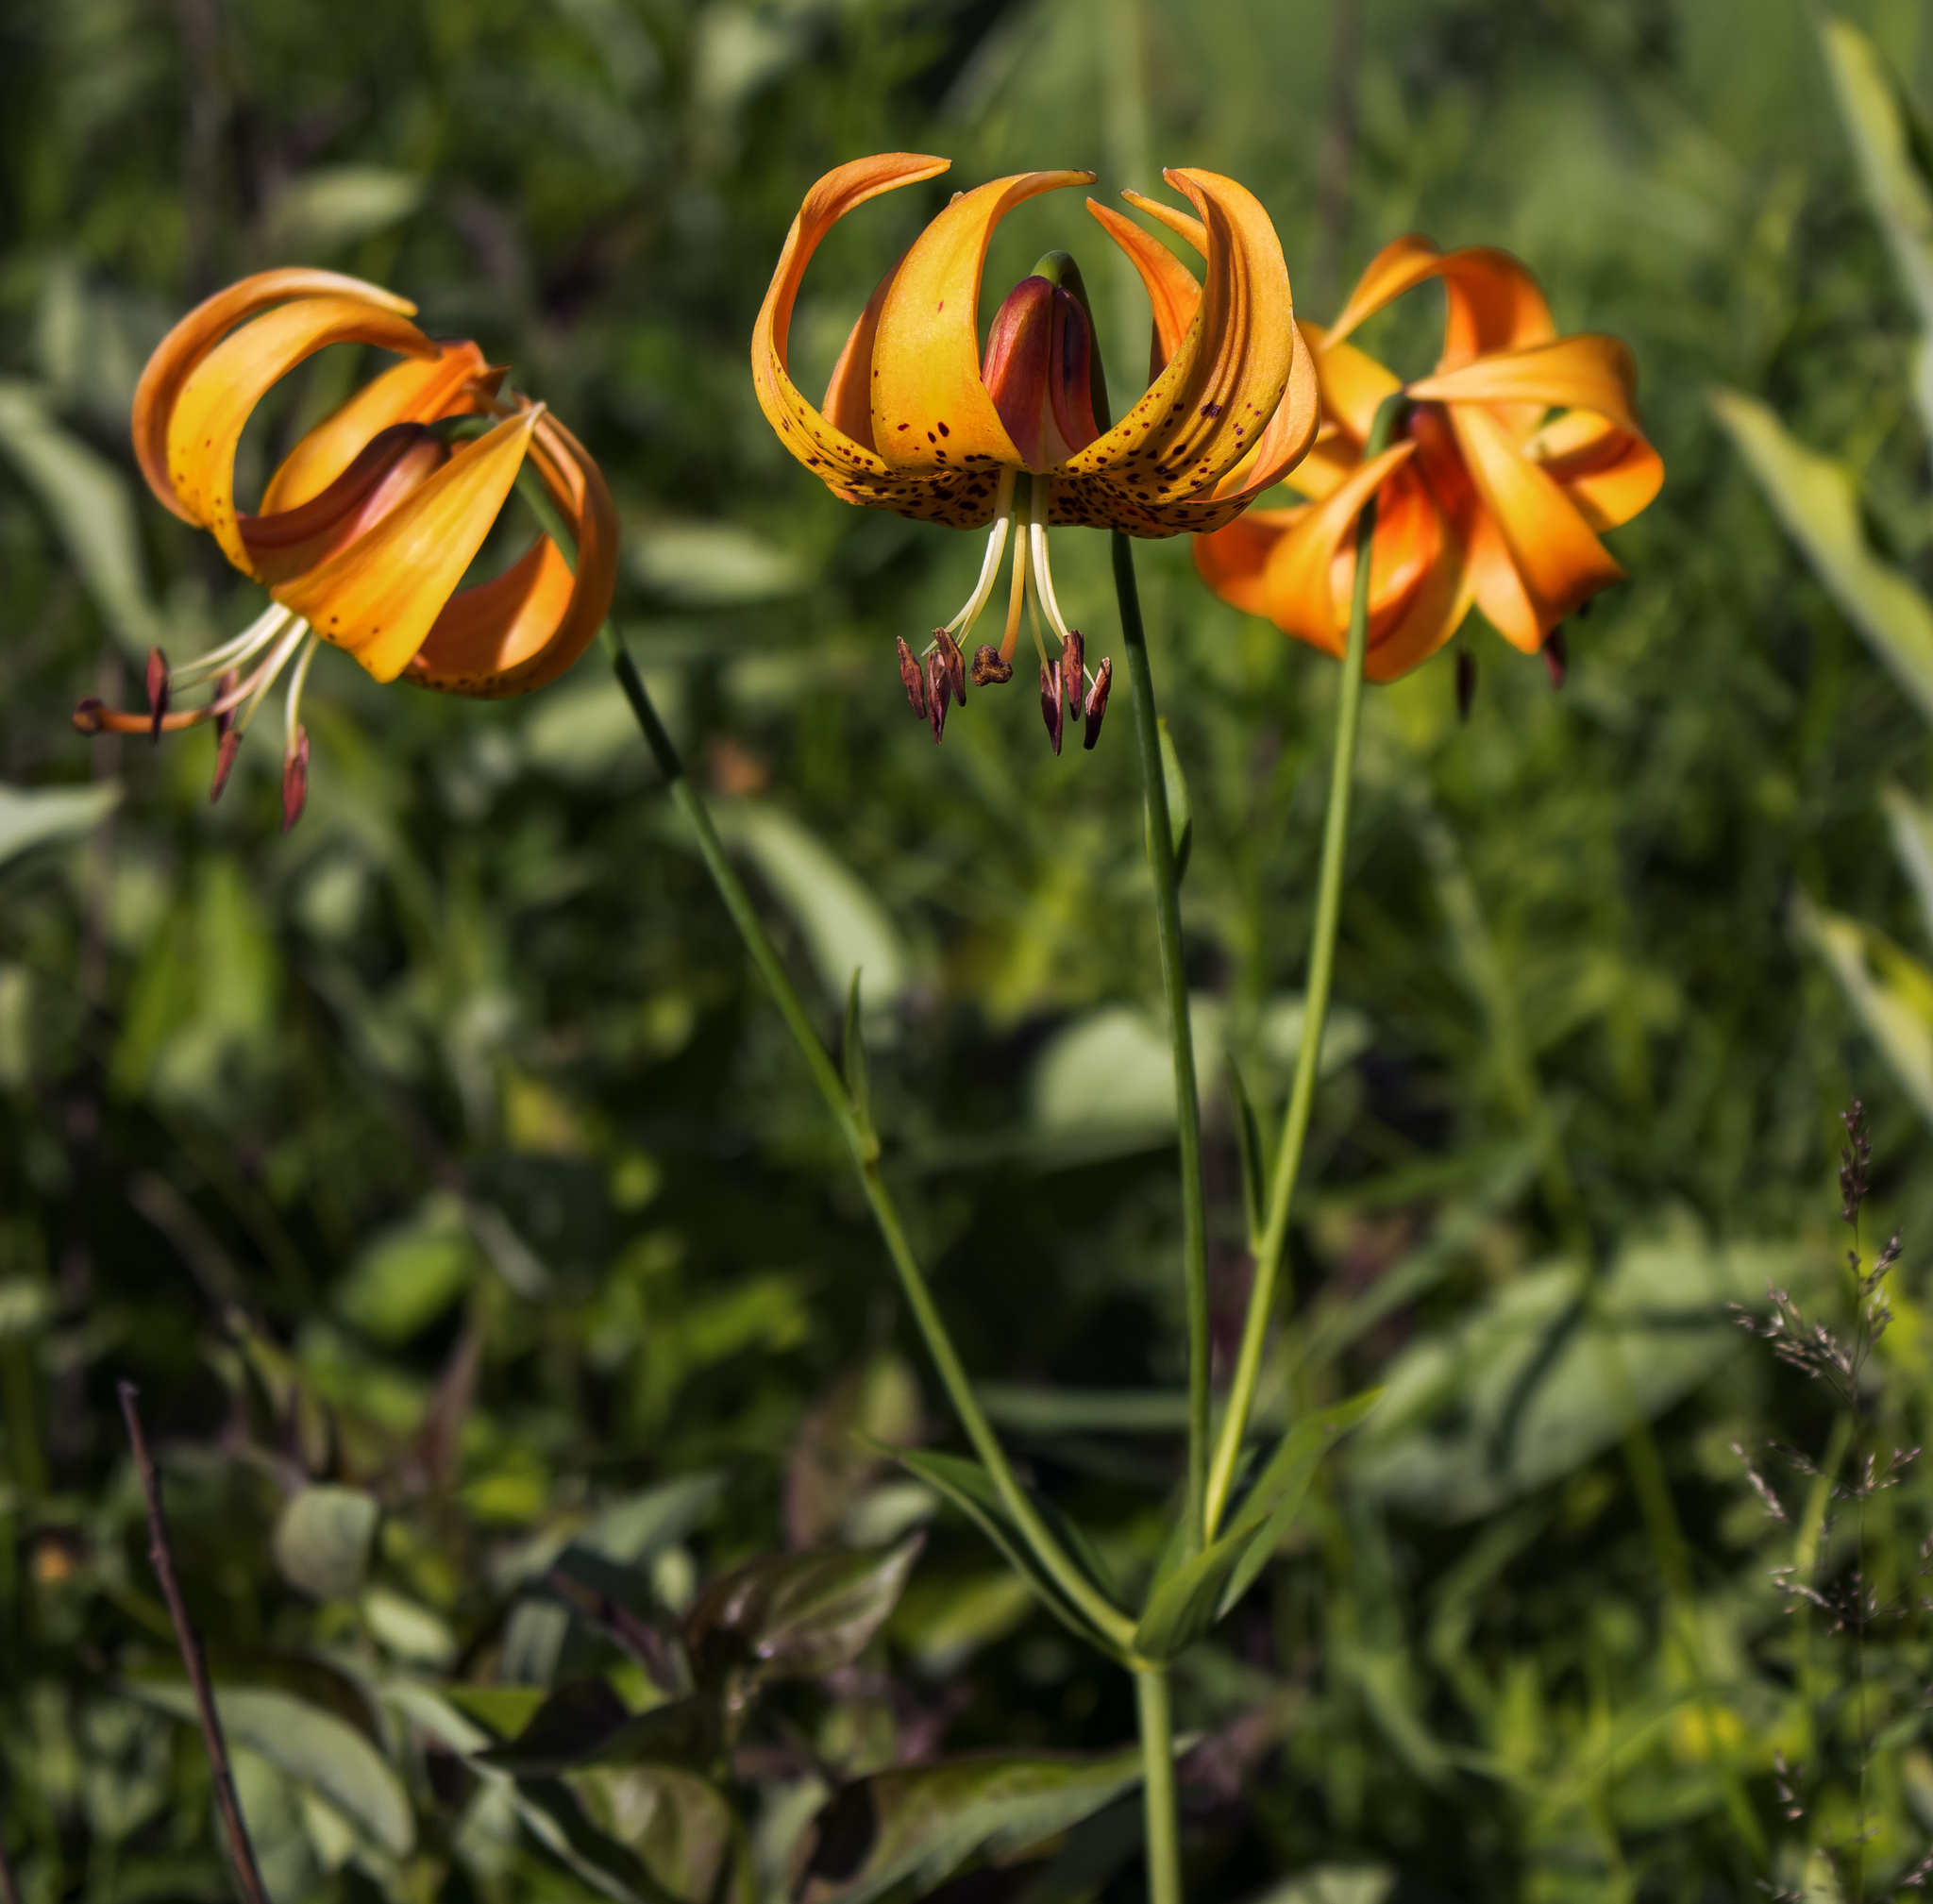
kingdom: Plantae
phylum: Tracheophyta
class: Liliopsida
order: Liliales
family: Liliaceae
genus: Lilium
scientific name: Lilium michiganense
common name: Michigan lily
